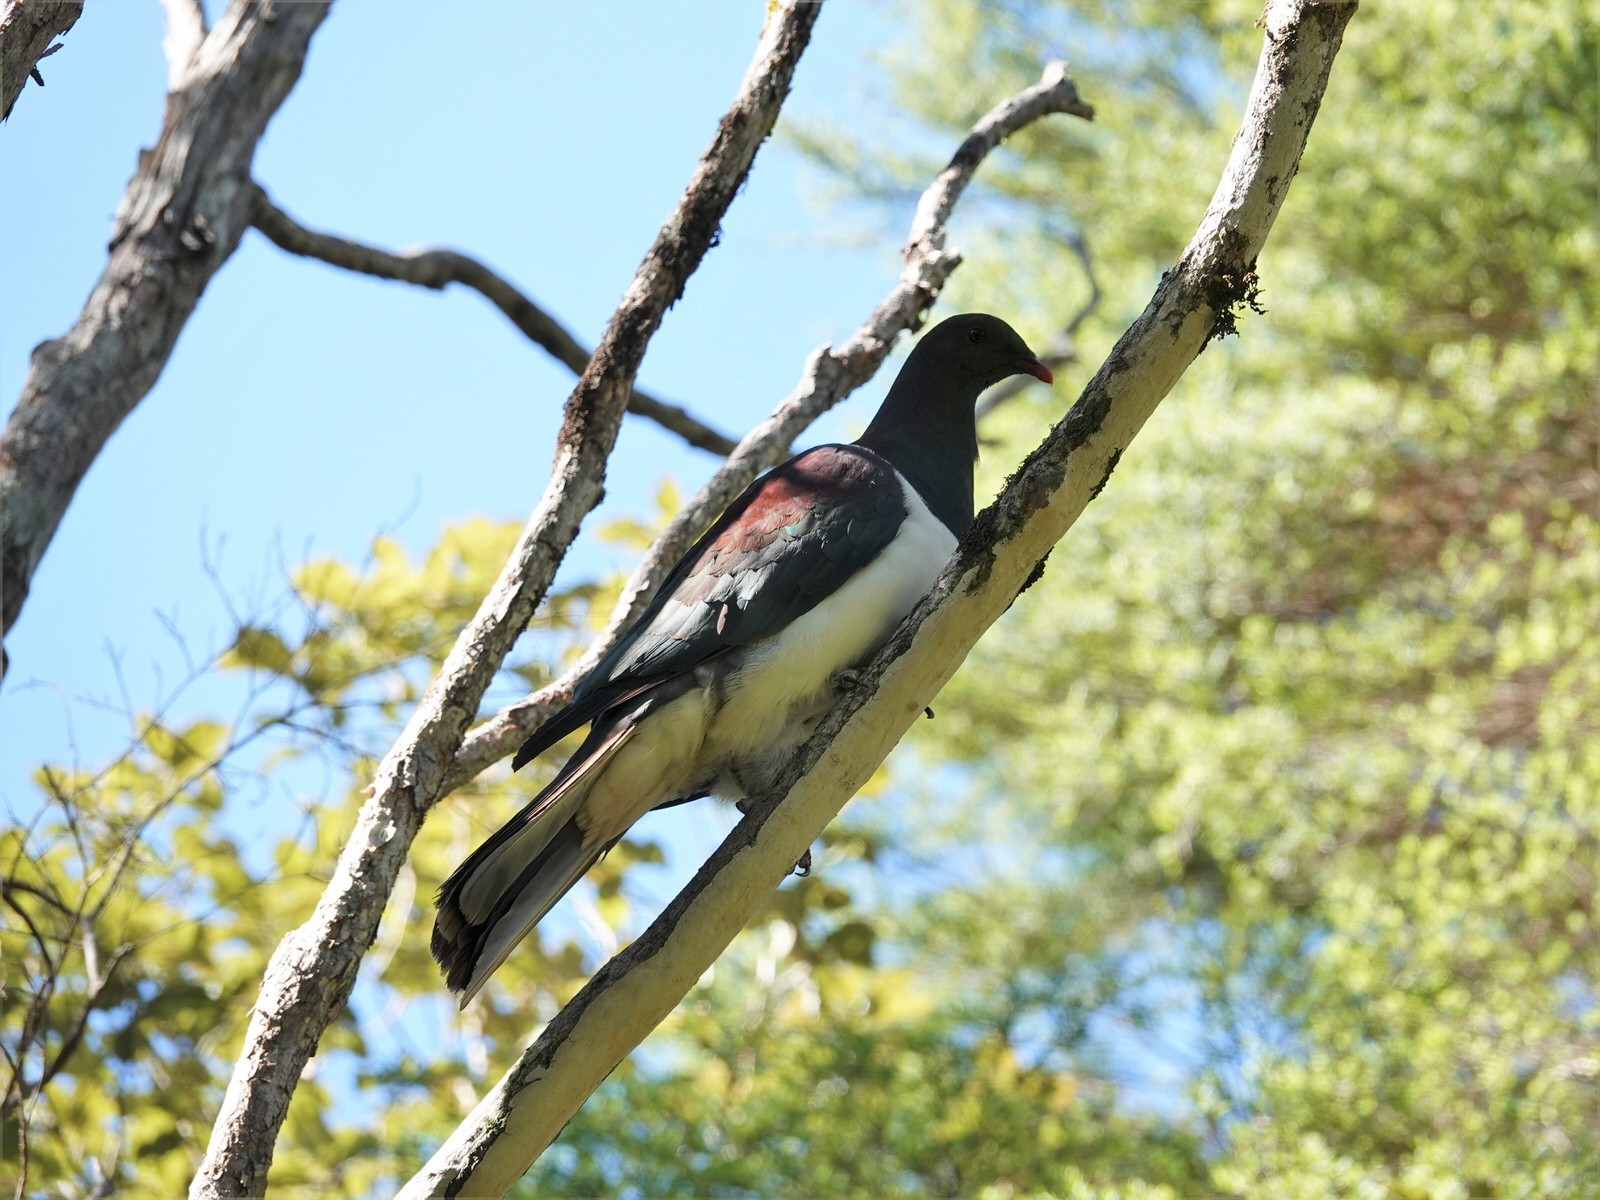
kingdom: Animalia
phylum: Chordata
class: Aves
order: Columbiformes
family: Columbidae
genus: Hemiphaga
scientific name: Hemiphaga novaeseelandiae
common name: New zealand pigeon
